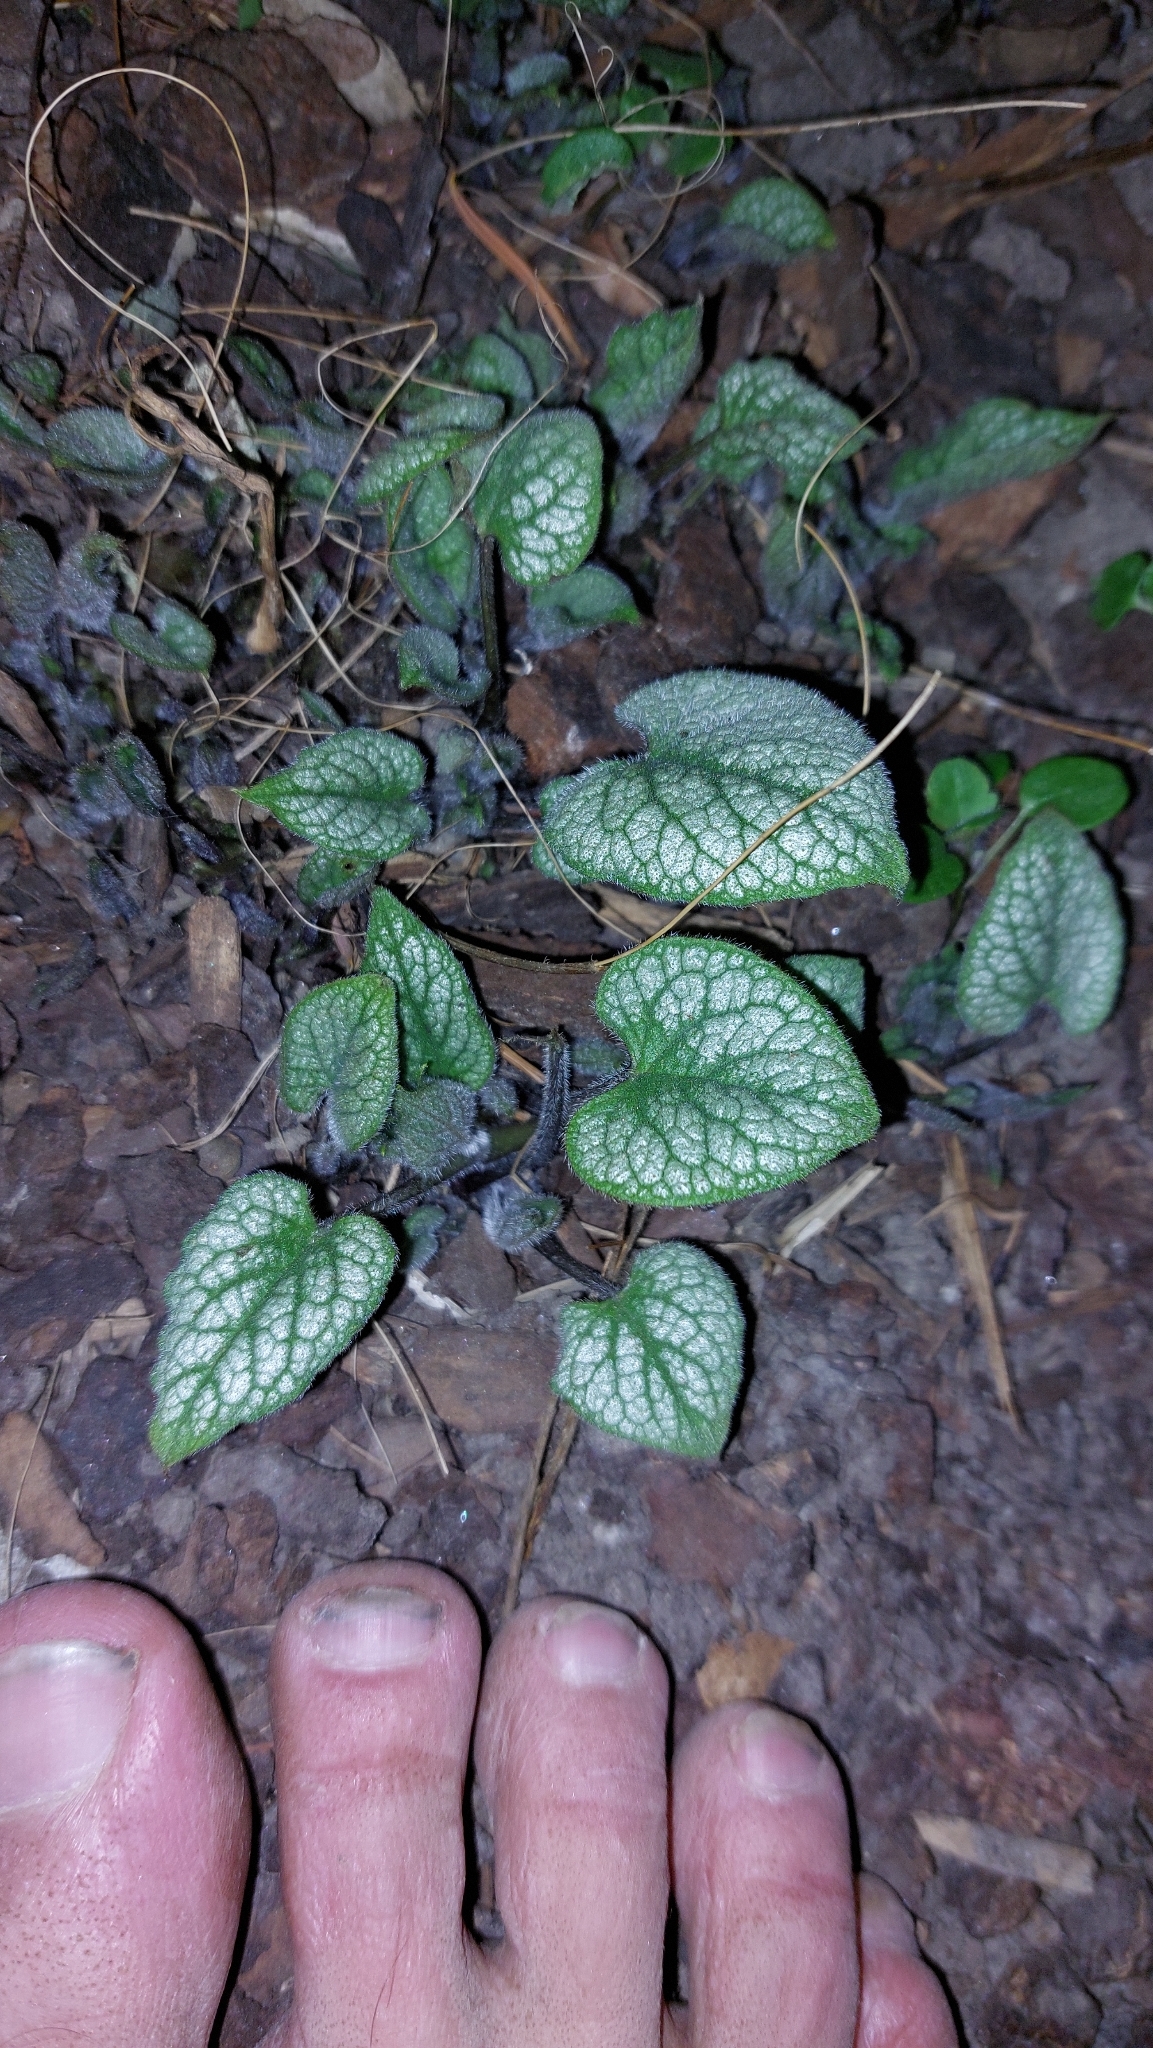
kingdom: Plantae
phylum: Tracheophyta
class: Magnoliopsida
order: Boraginales
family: Boraginaceae
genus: Brunnera
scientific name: Brunnera macrophylla
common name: Great forget-me-not
